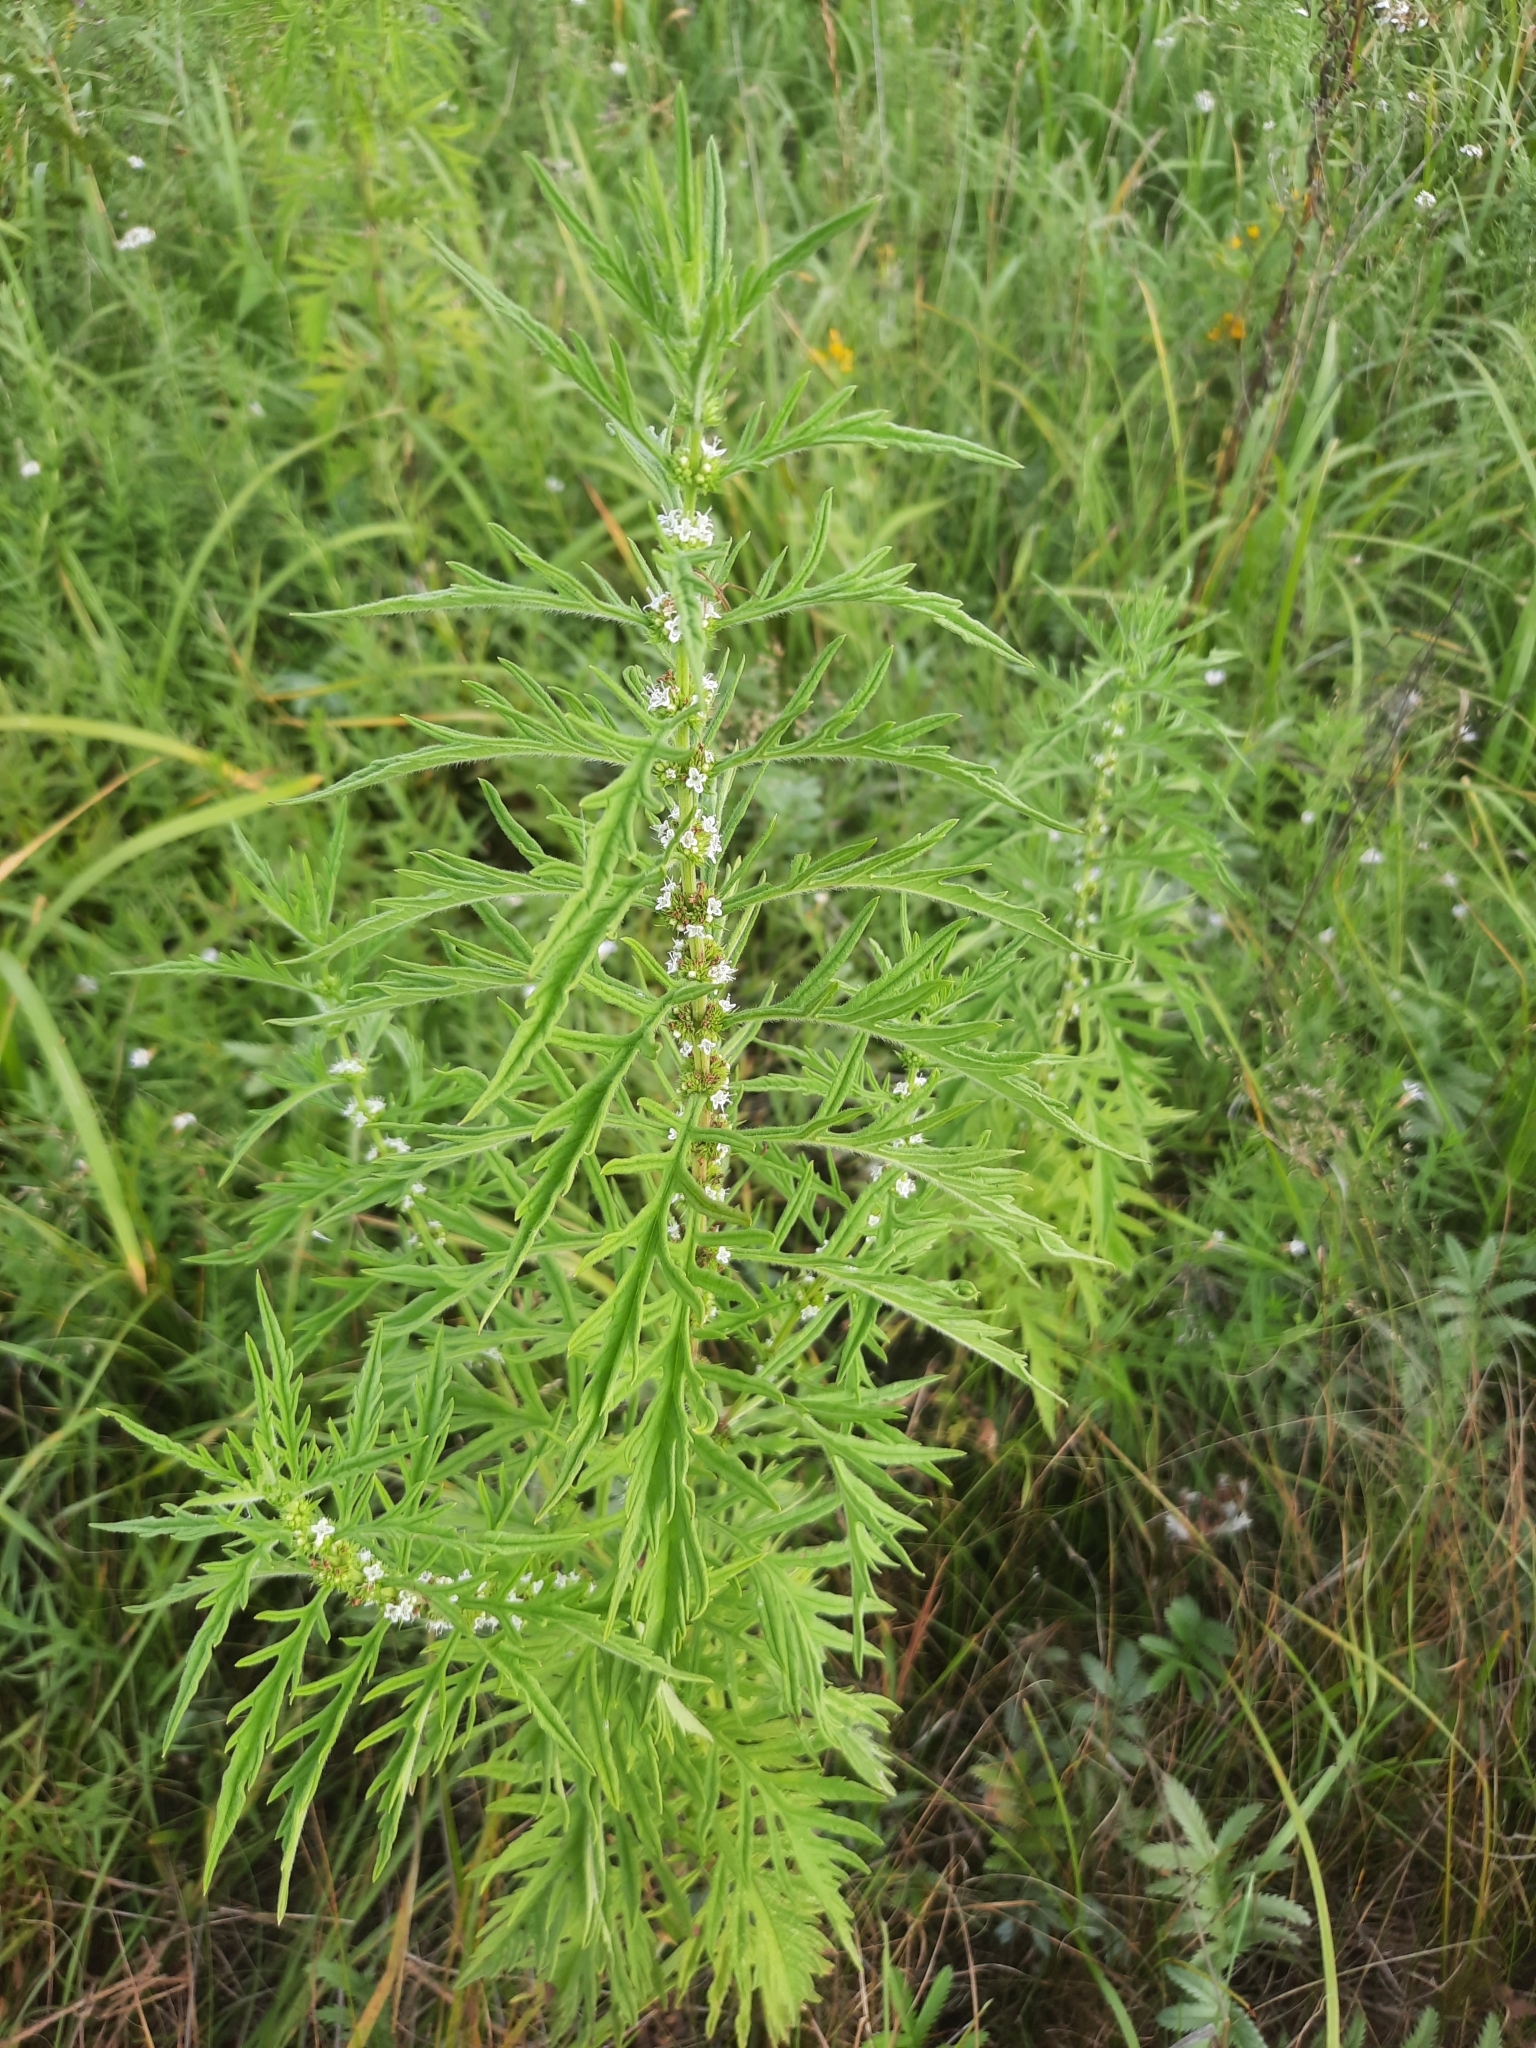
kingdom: Plantae
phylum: Tracheophyta
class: Magnoliopsida
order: Lamiales
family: Lamiaceae
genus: Lycopus
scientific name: Lycopus exaltatus
